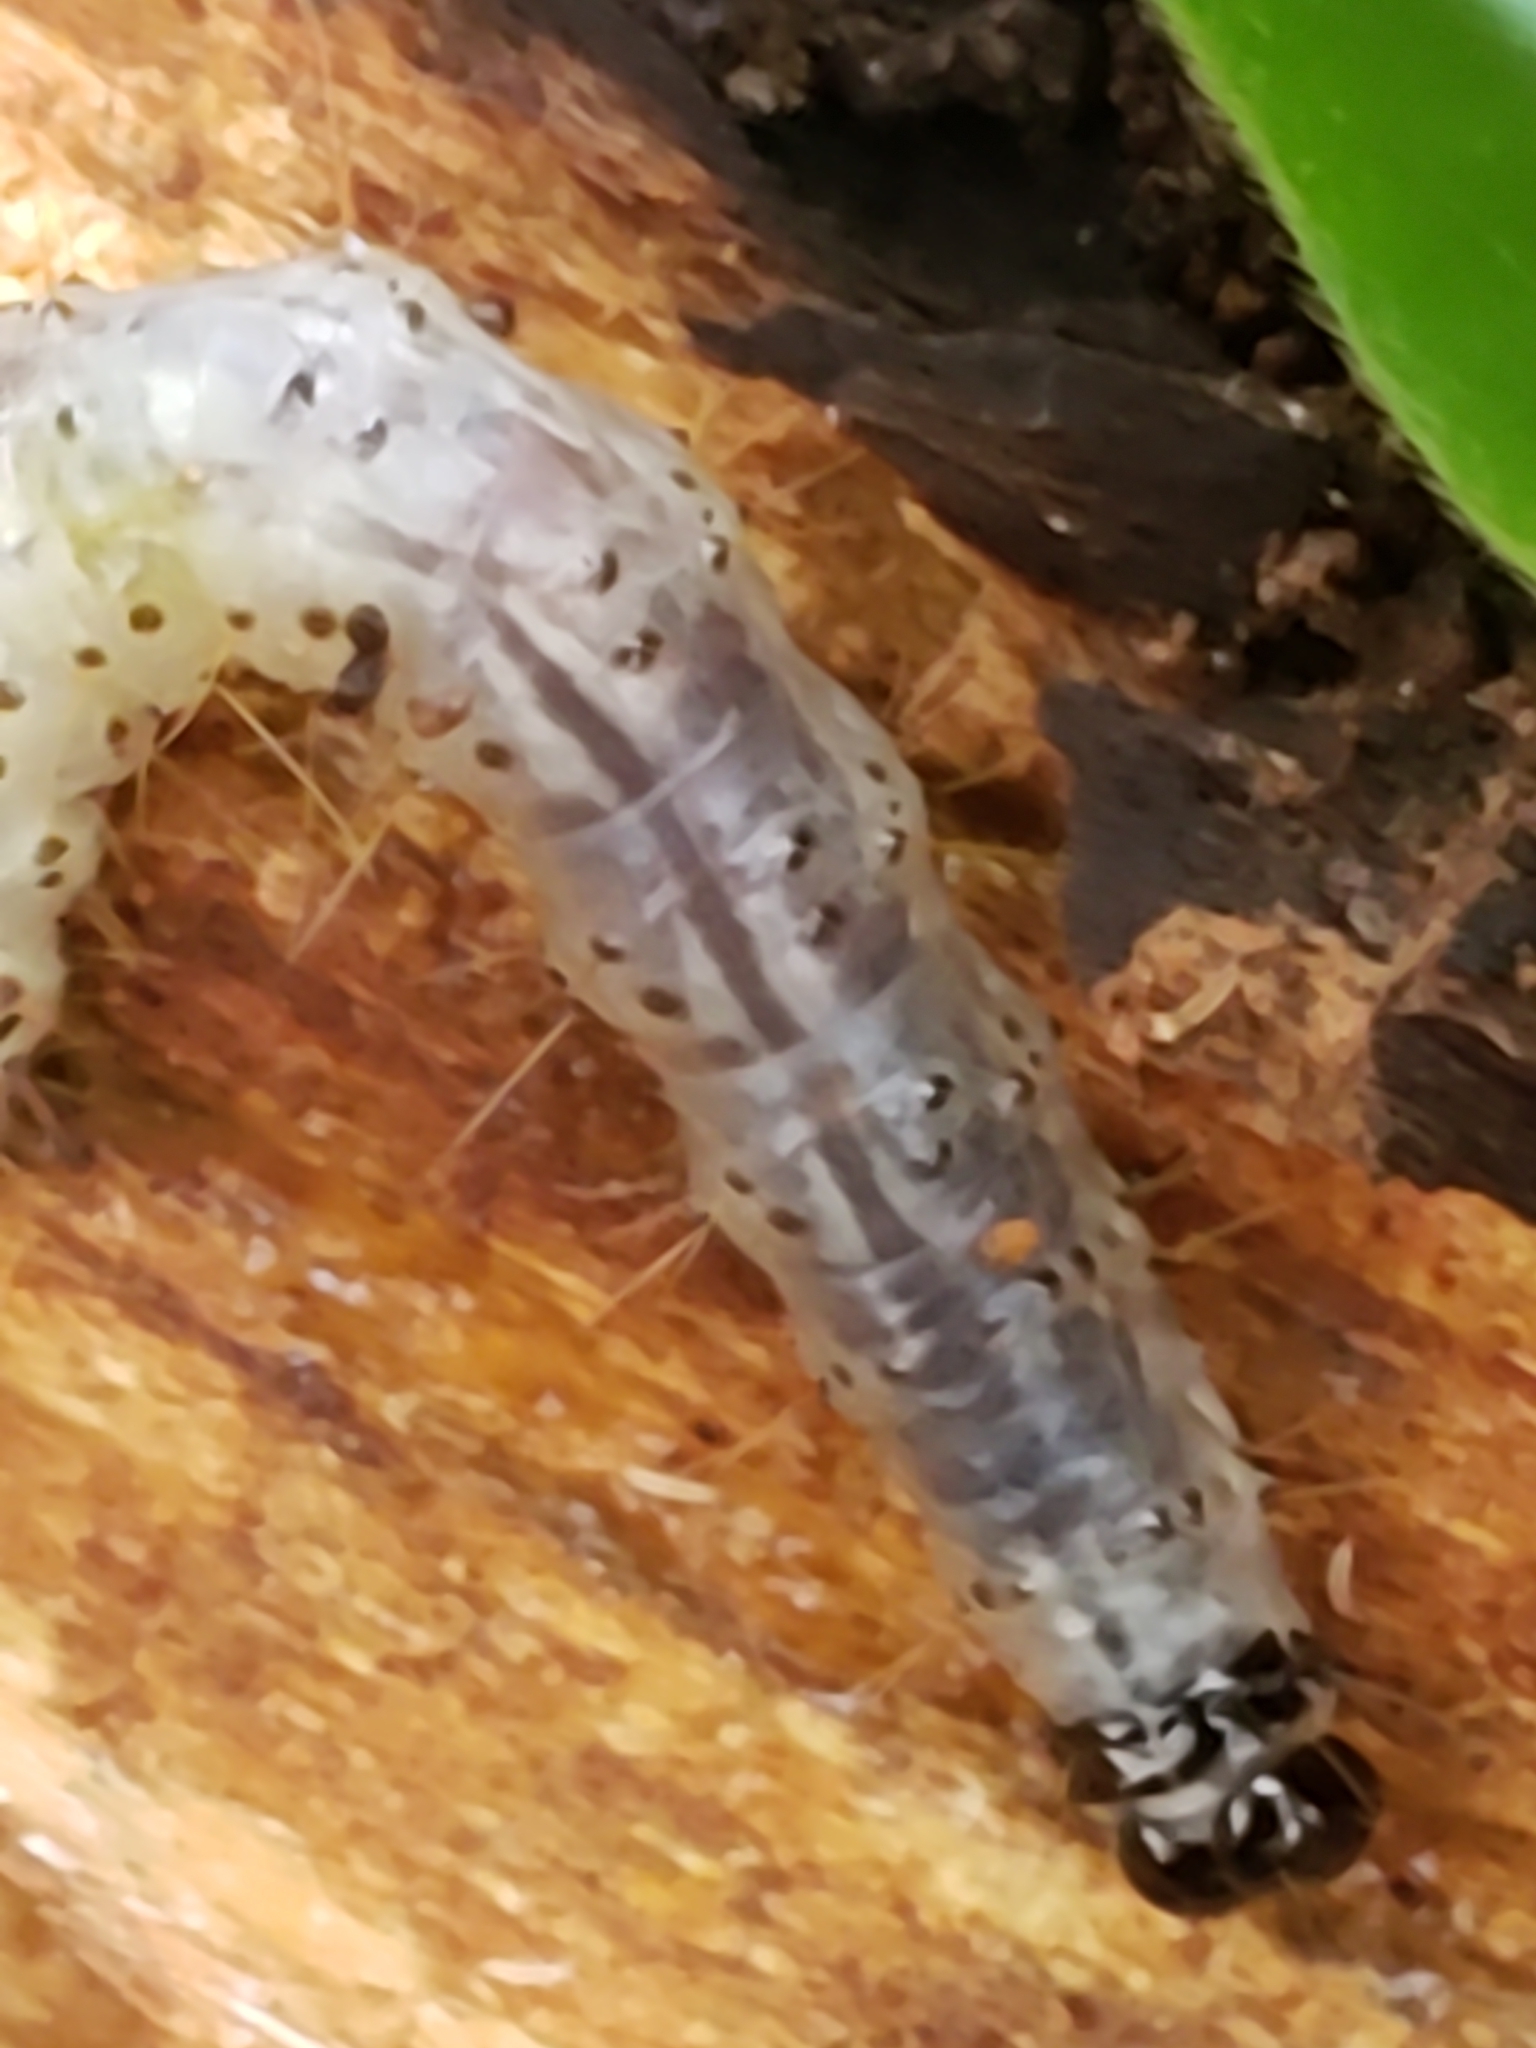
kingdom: Animalia
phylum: Arthropoda
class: Insecta
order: Lepidoptera
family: Erebidae
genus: Scolecocampa
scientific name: Scolecocampa liburna
